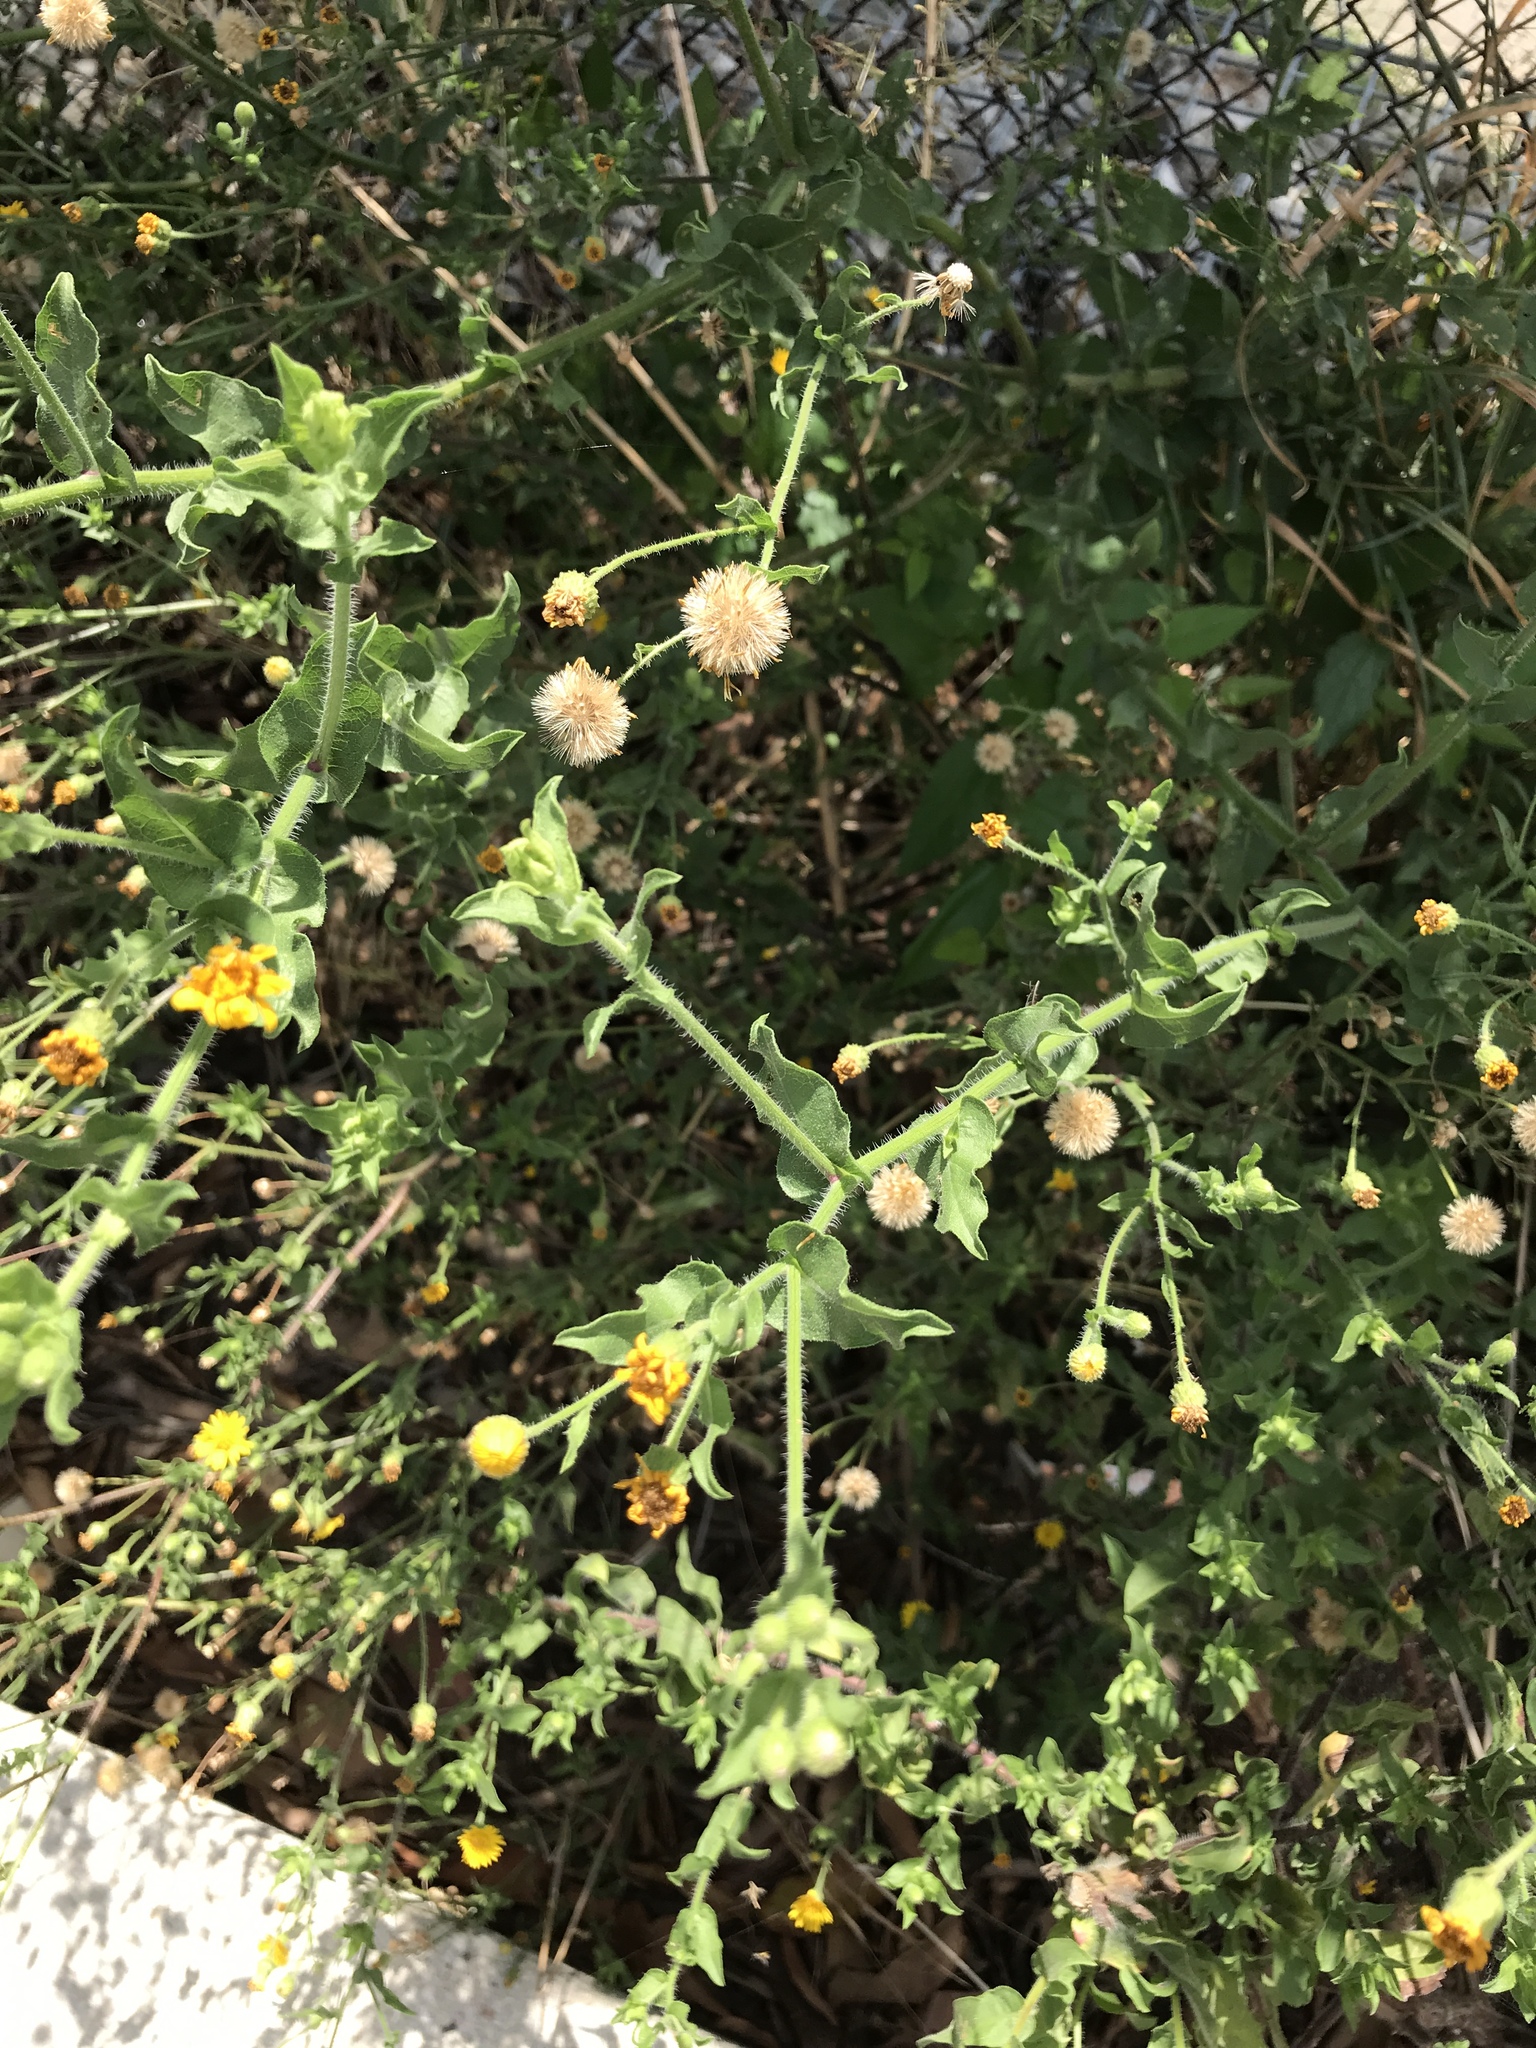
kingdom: Plantae
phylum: Tracheophyta
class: Magnoliopsida
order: Asterales
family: Asteraceae
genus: Heterotheca
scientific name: Heterotheca subaxillaris
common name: Camphorweed
